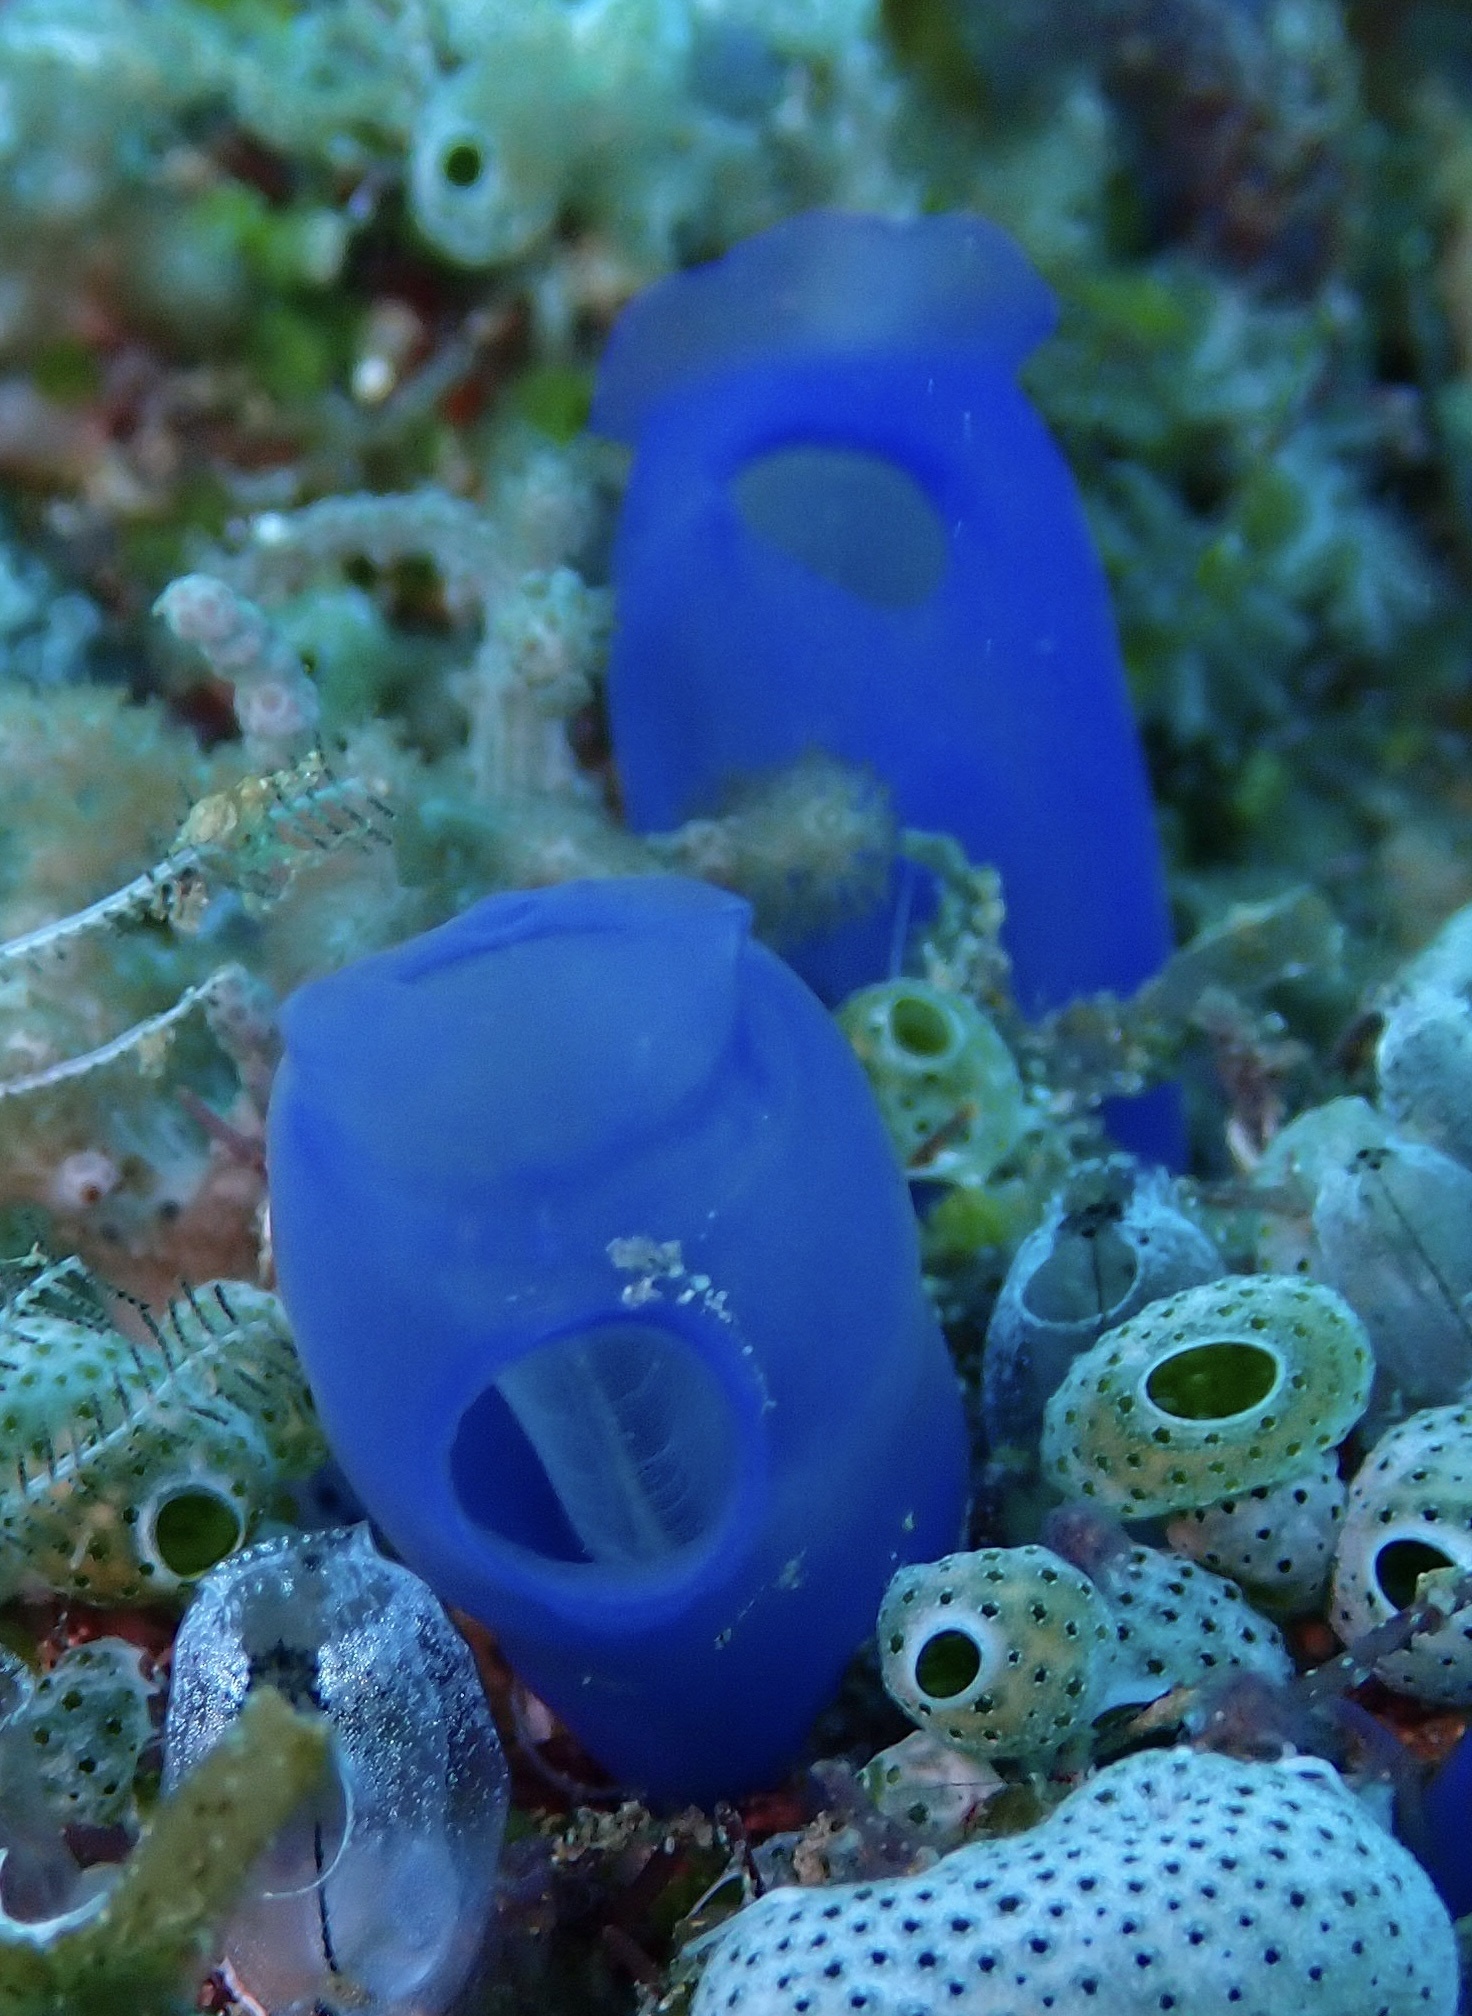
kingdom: Animalia
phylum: Chordata
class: Ascidiacea
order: Aplousobranchia
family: Diazonidae
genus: Rhopalaea
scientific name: Rhopalaea fusca
